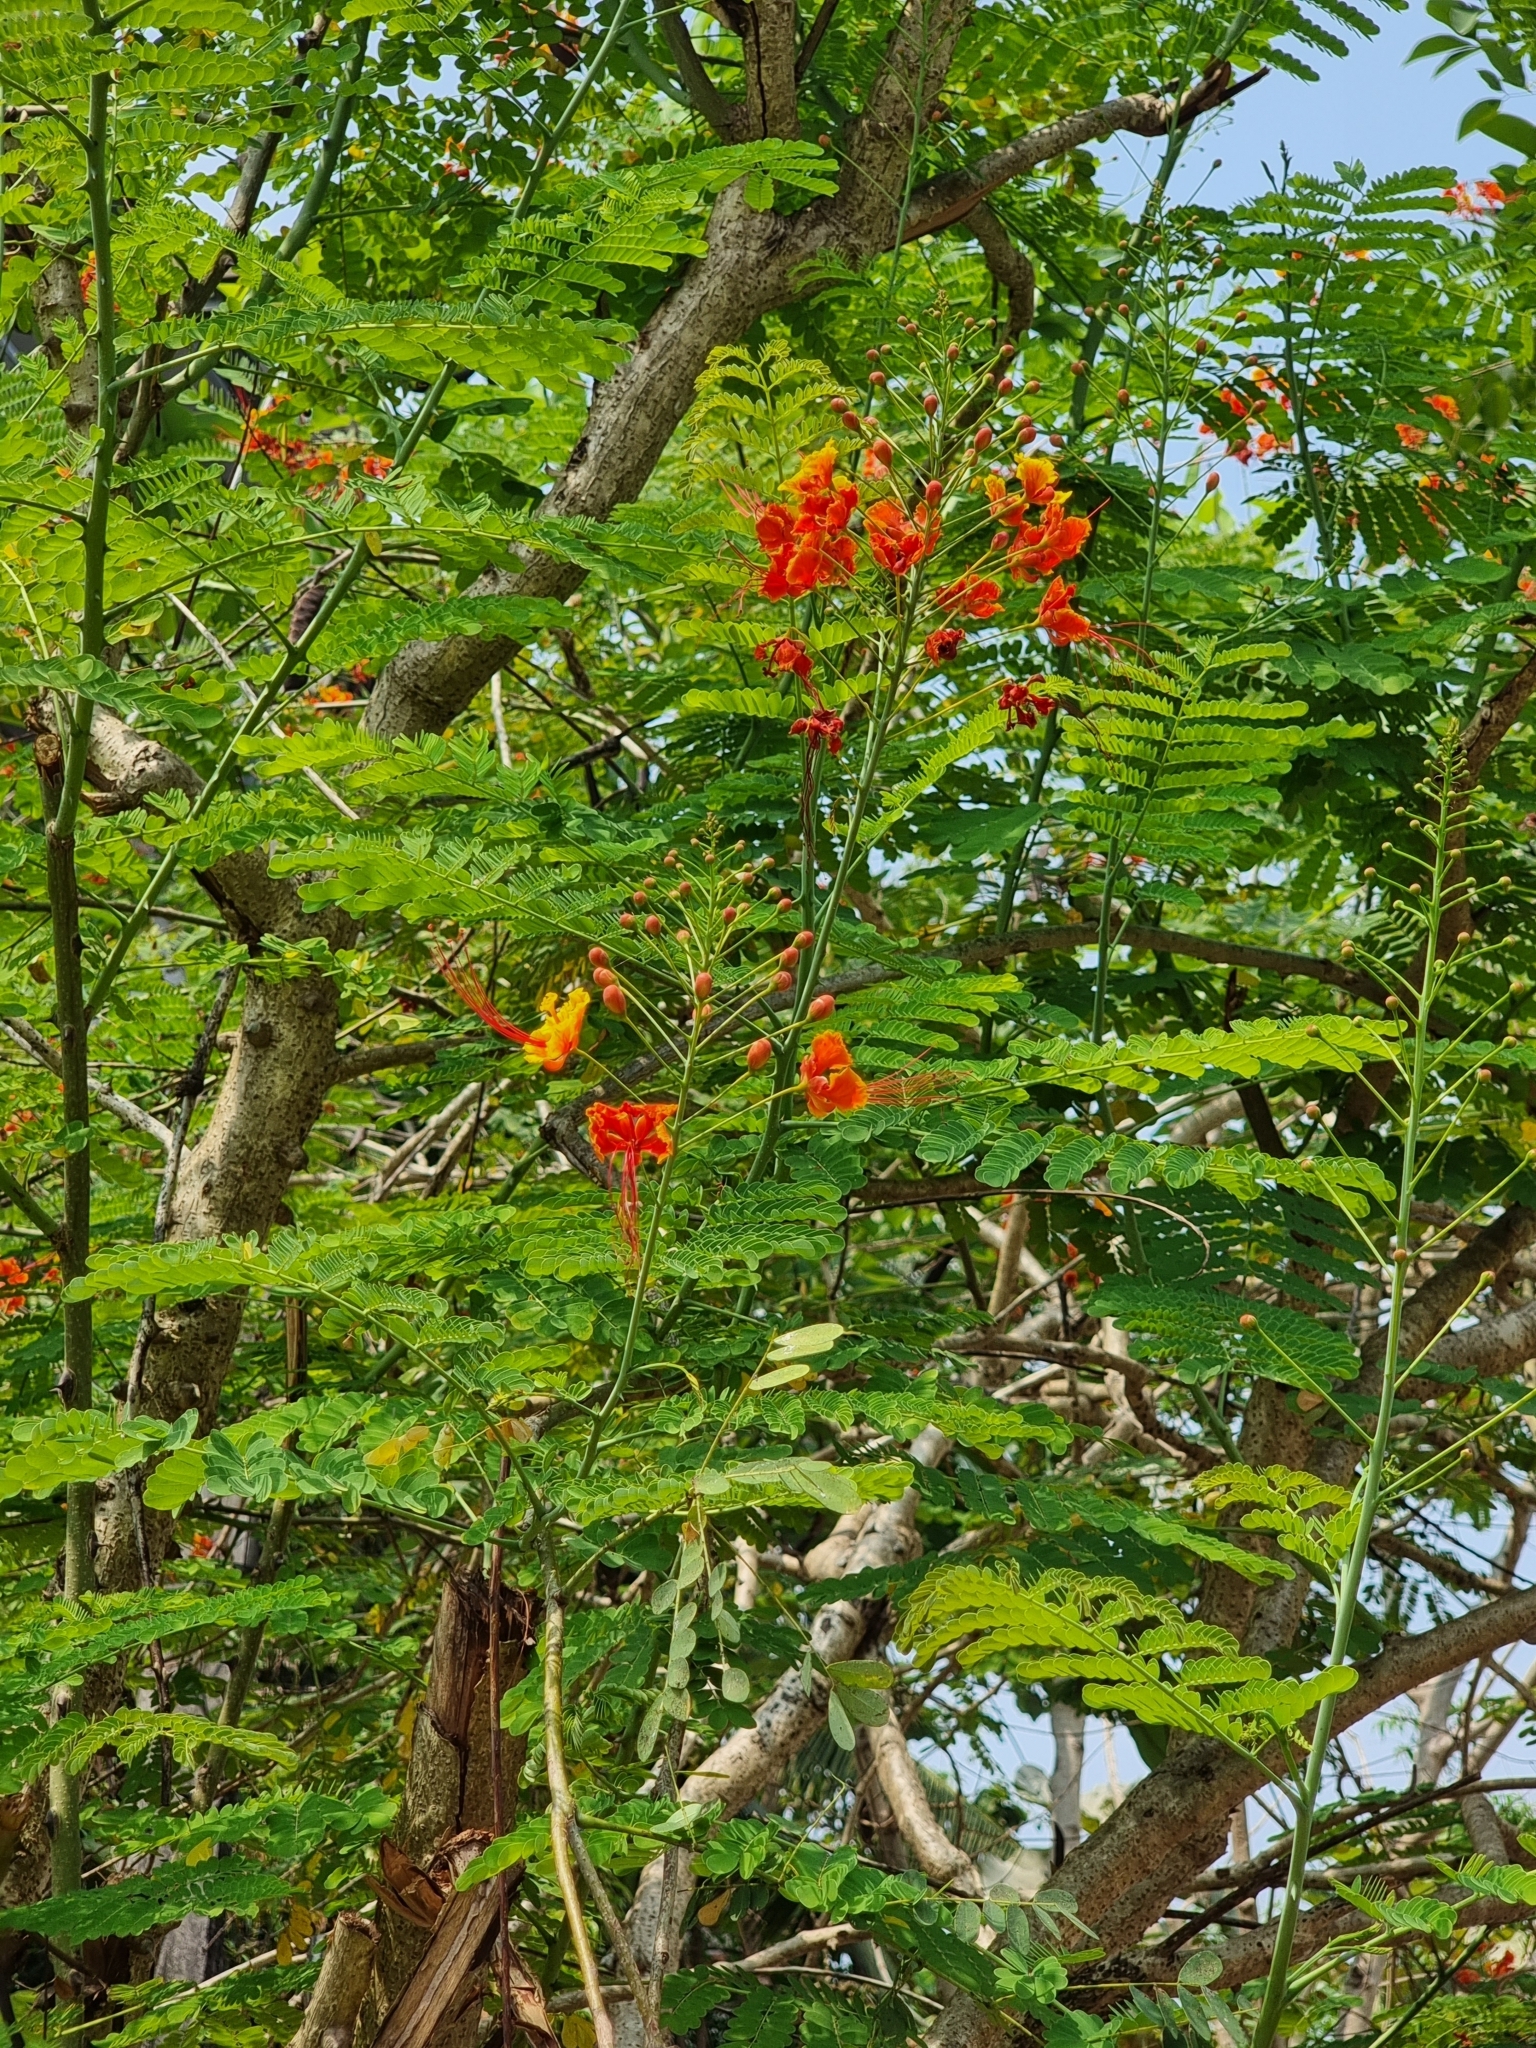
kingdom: Plantae
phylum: Tracheophyta
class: Magnoliopsida
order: Fabales
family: Fabaceae
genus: Caesalpinia
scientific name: Caesalpinia pulcherrima
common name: Pride-of-barbados
